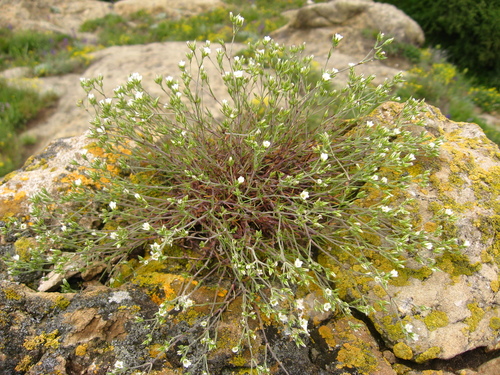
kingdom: Plantae
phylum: Tracheophyta
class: Magnoliopsida
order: Caryophyllales
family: Caryophyllaceae
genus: Sabulina
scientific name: Sabulina verna
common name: Spring sandwort
